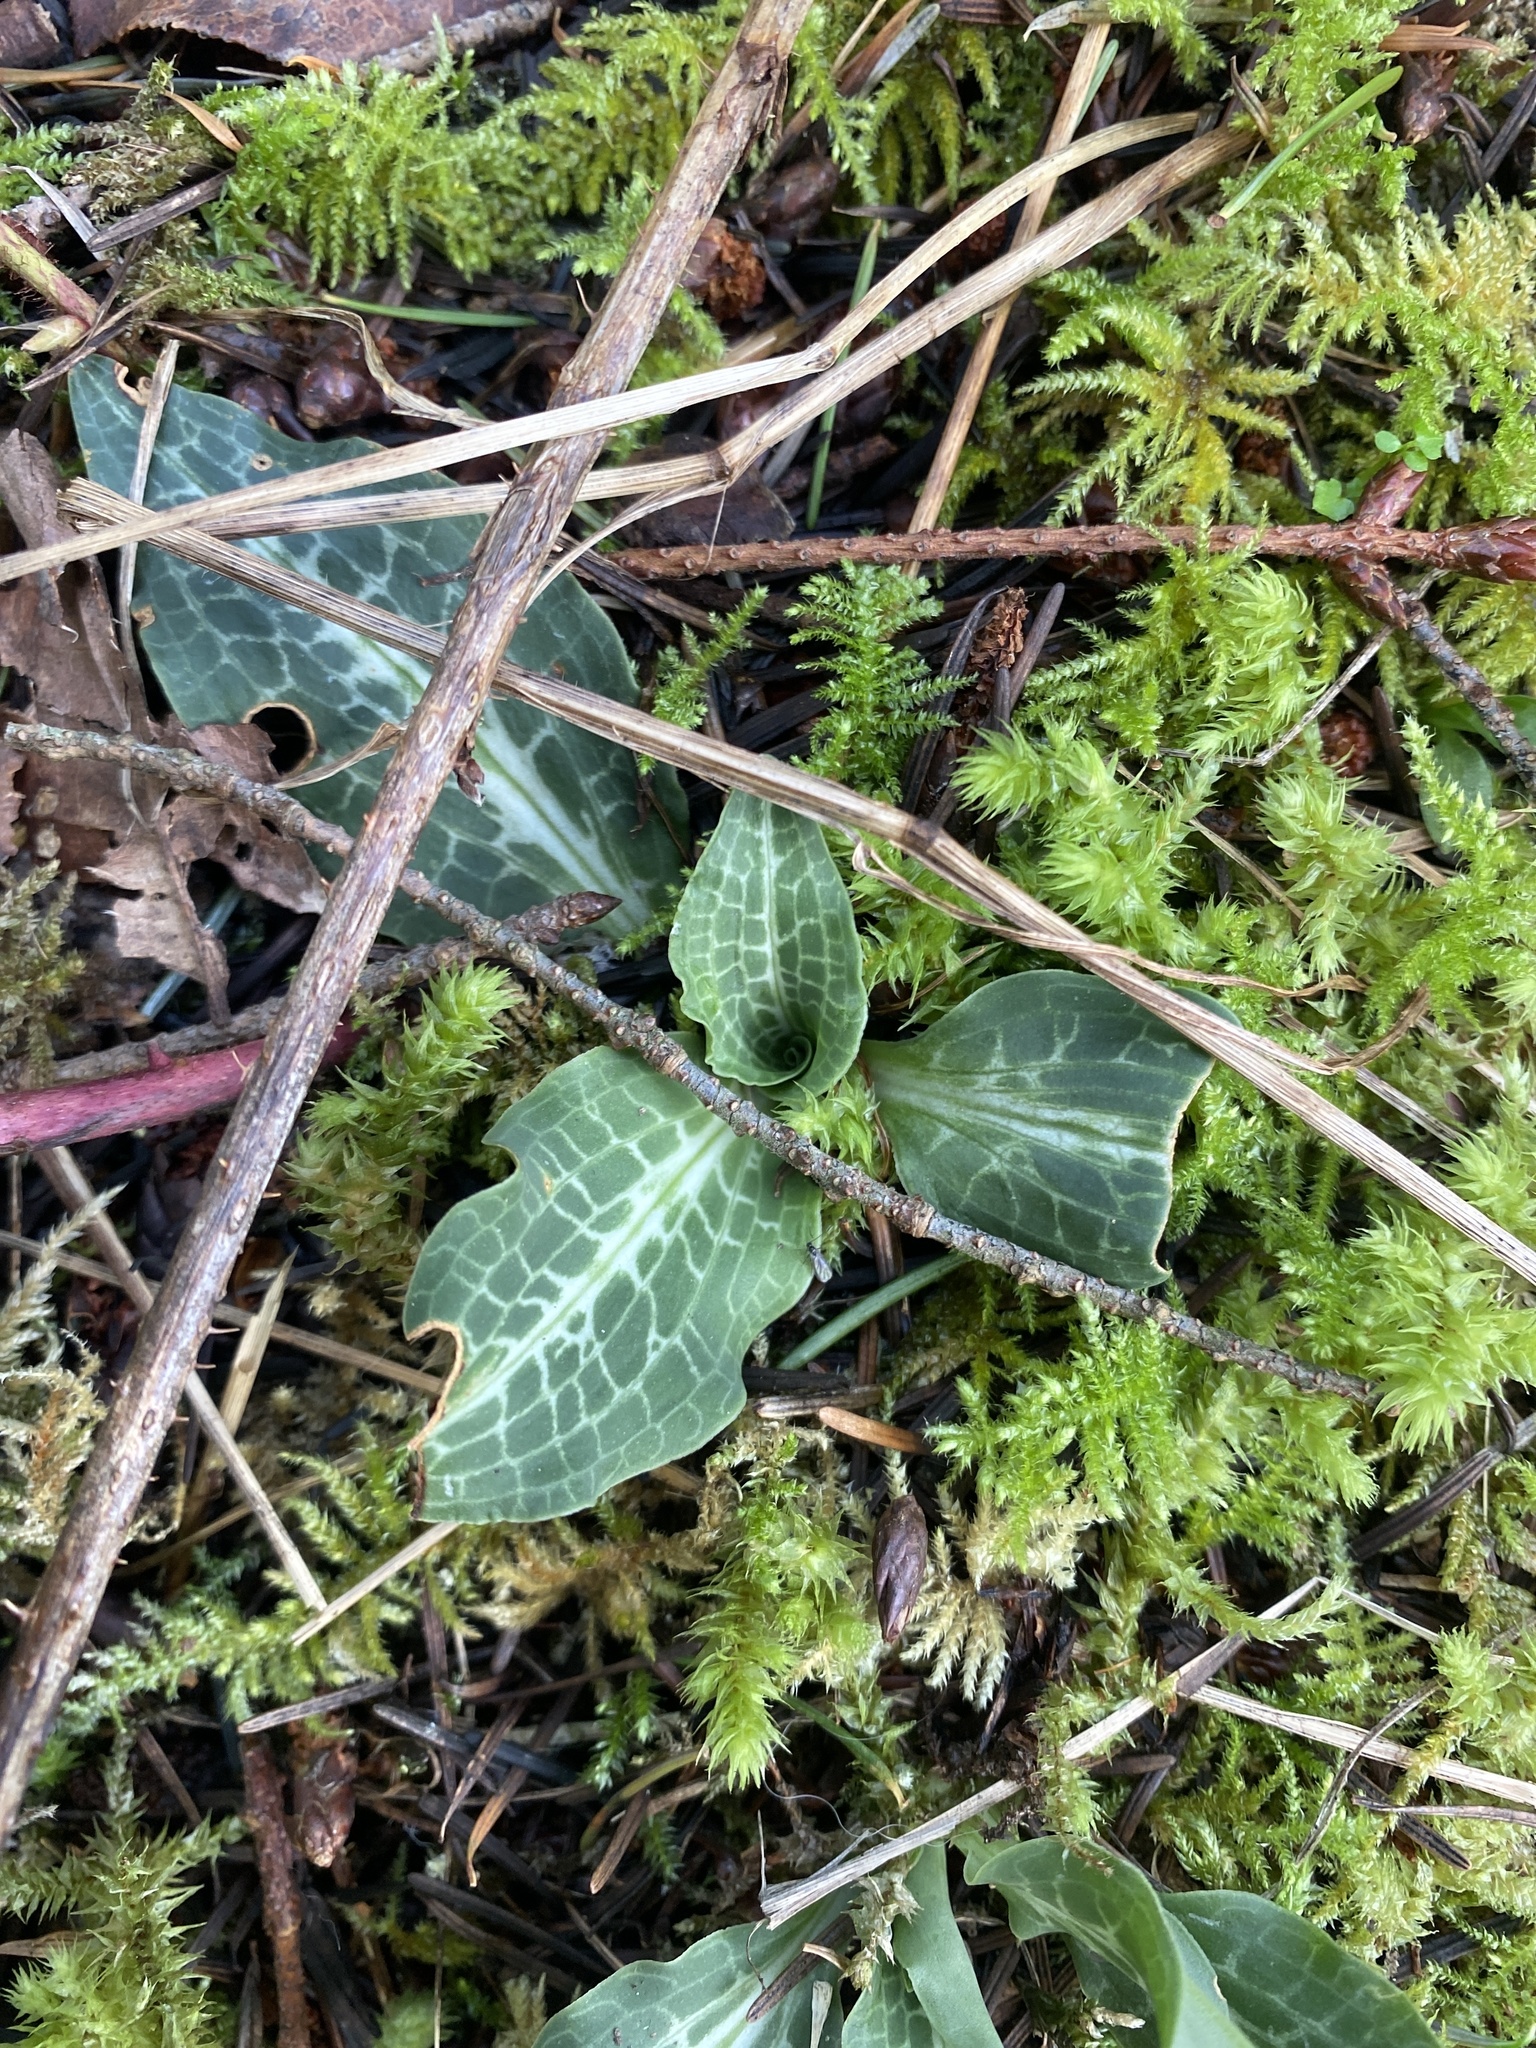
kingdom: Plantae
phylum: Tracheophyta
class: Liliopsida
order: Asparagales
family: Orchidaceae
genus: Goodyera
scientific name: Goodyera oblongifolia
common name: Giant rattlesnake-plantain
